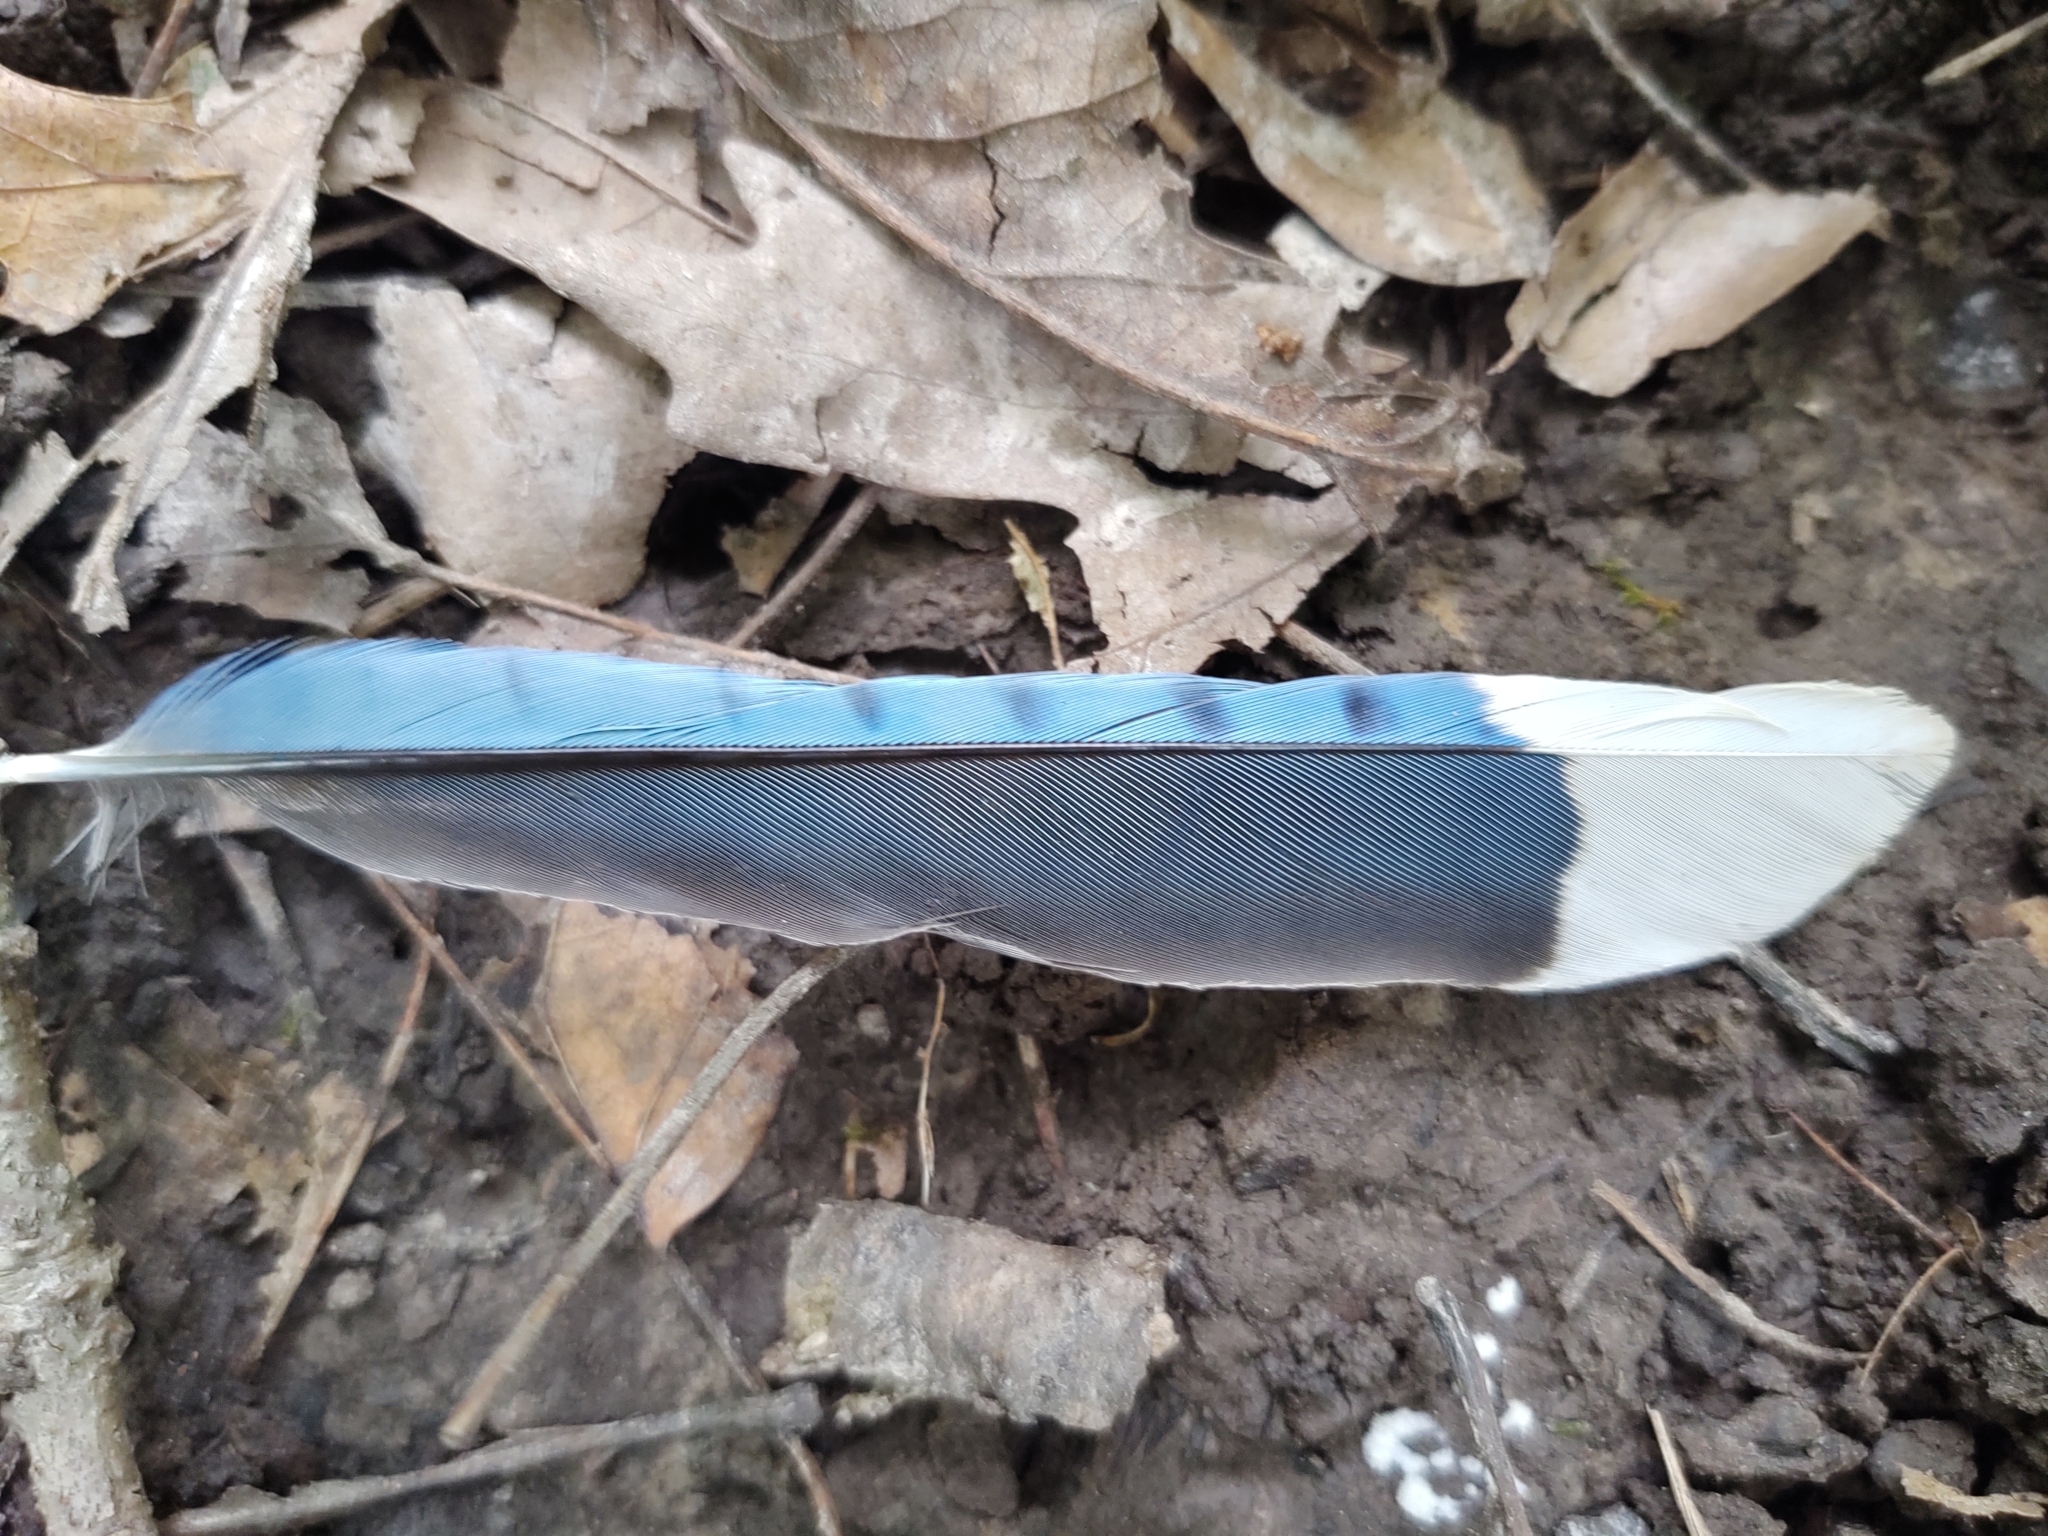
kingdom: Animalia
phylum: Chordata
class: Aves
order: Passeriformes
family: Corvidae
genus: Cyanocitta
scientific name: Cyanocitta cristata
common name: Blue jay
